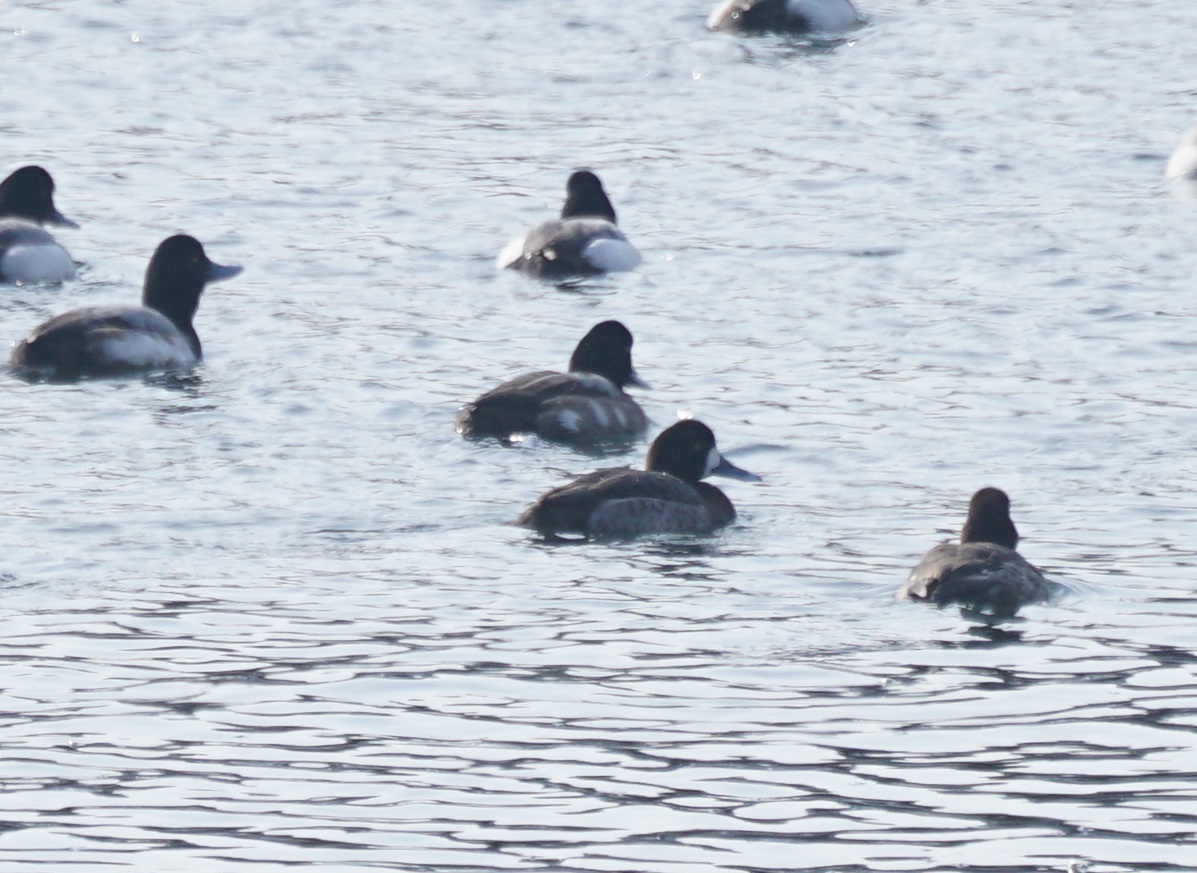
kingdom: Animalia
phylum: Chordata
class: Aves
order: Anseriformes
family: Anatidae
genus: Aythya
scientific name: Aythya marila
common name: Greater scaup
